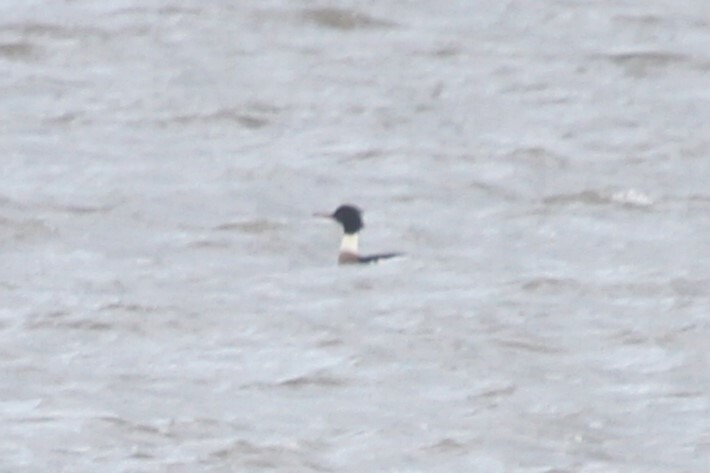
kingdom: Animalia
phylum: Chordata
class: Aves
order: Anseriformes
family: Anatidae
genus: Mergus
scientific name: Mergus serrator
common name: Red-breasted merganser
